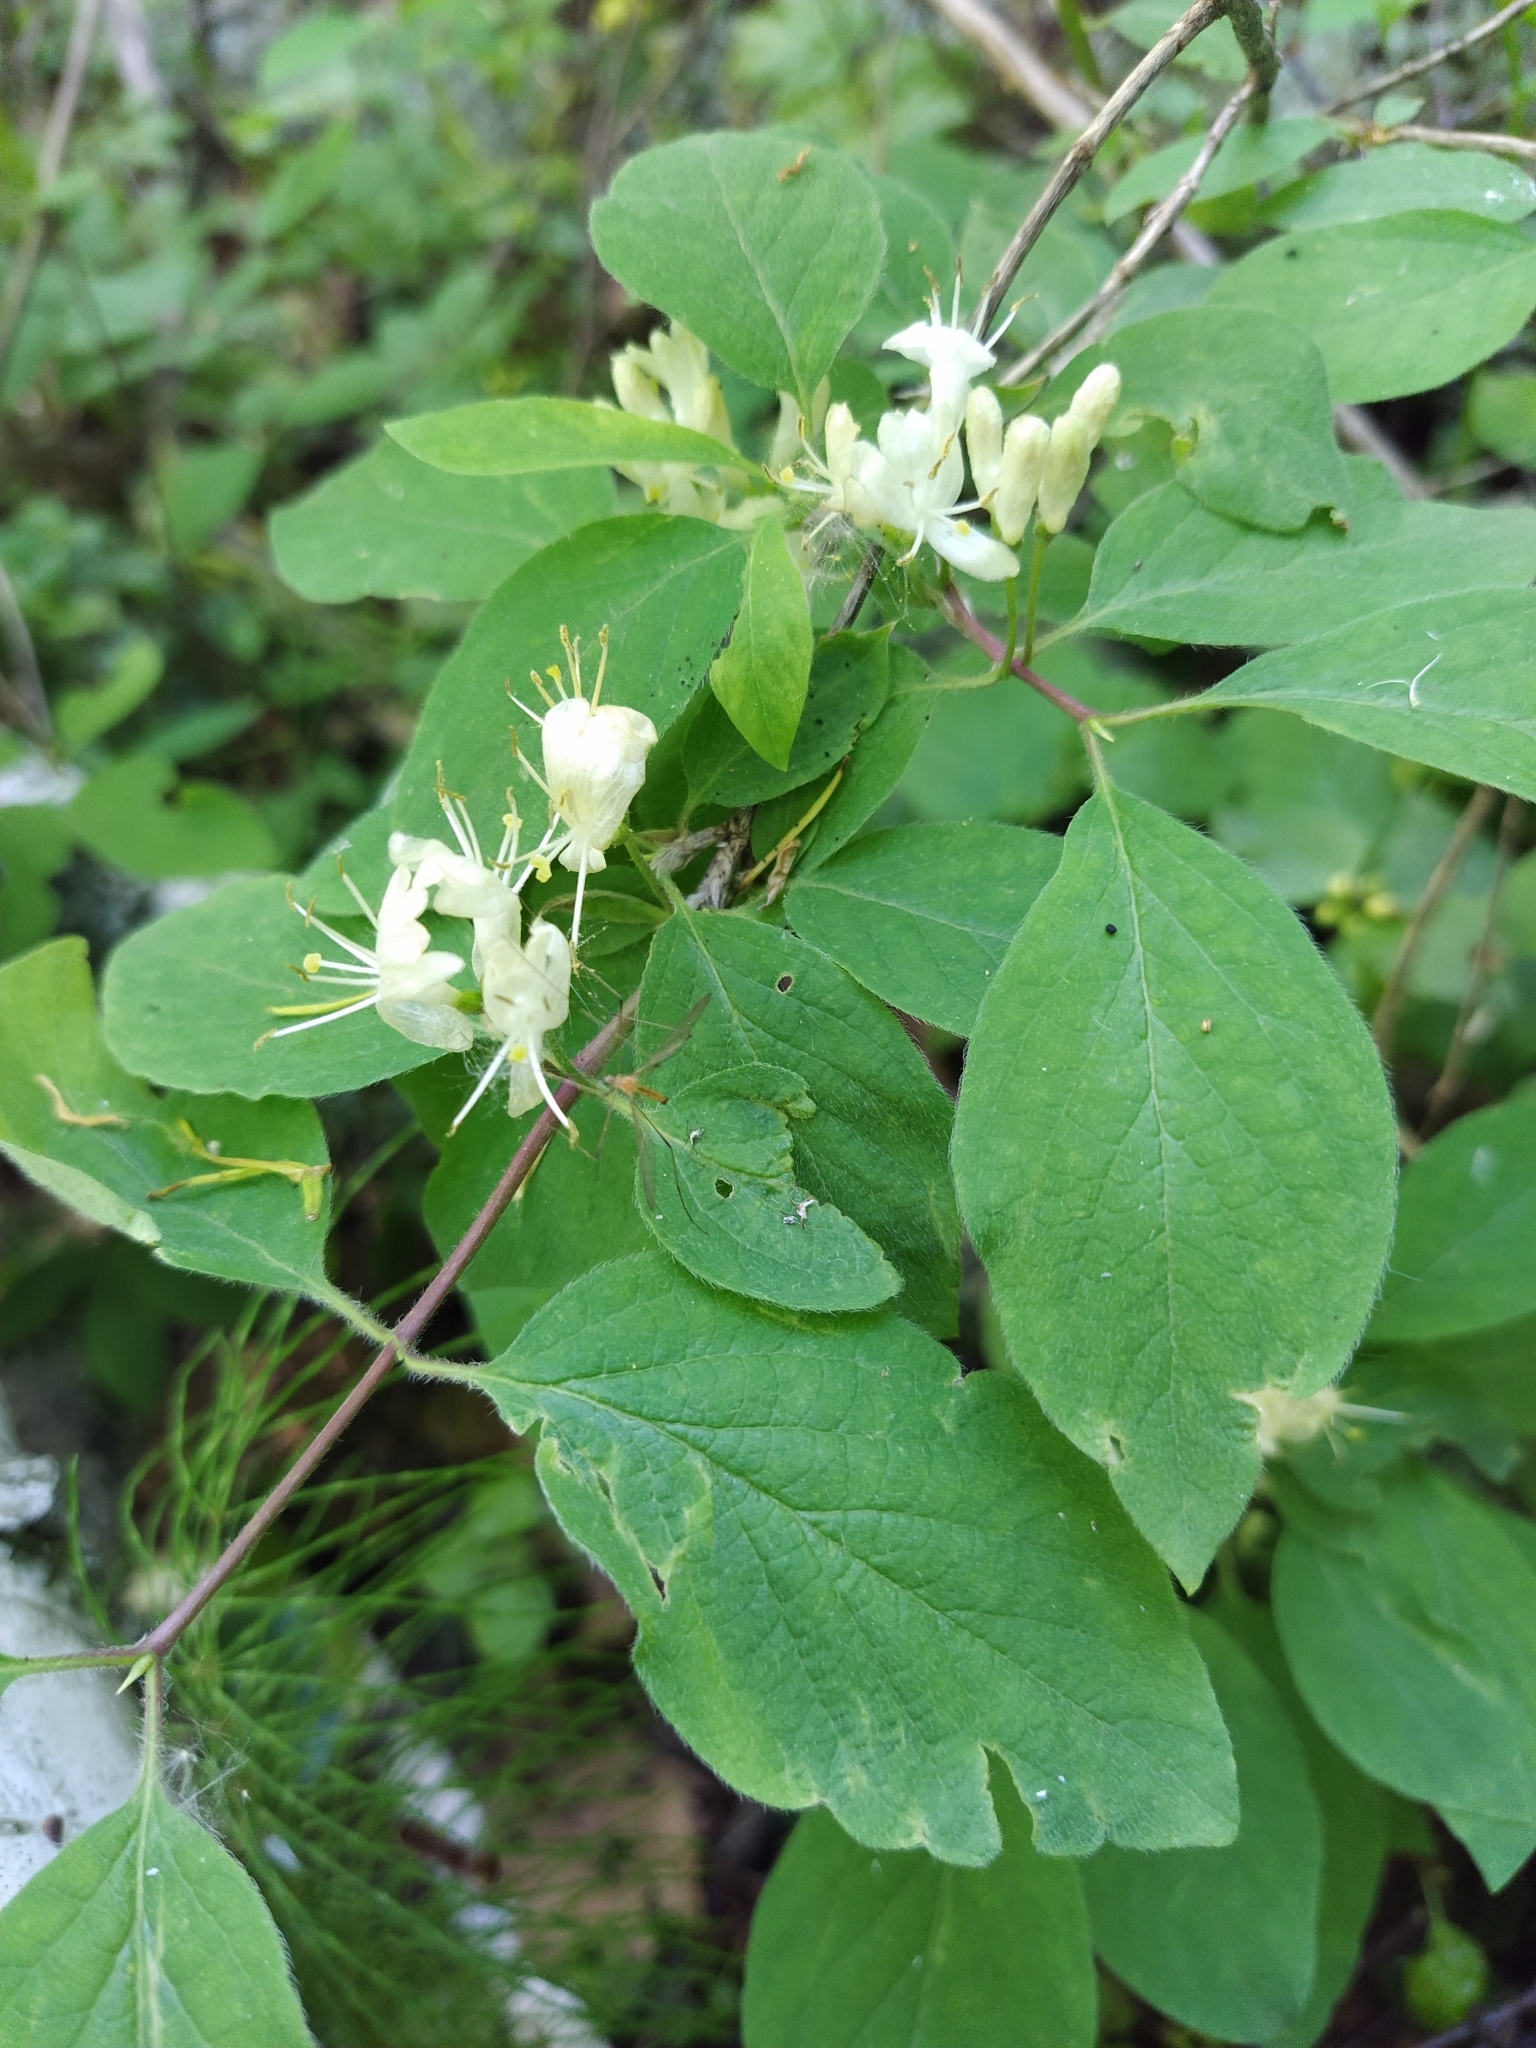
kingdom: Plantae
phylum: Tracheophyta
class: Magnoliopsida
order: Dipsacales
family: Caprifoliaceae
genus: Lonicera
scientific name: Lonicera xylosteum
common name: Fly honeysuckle
